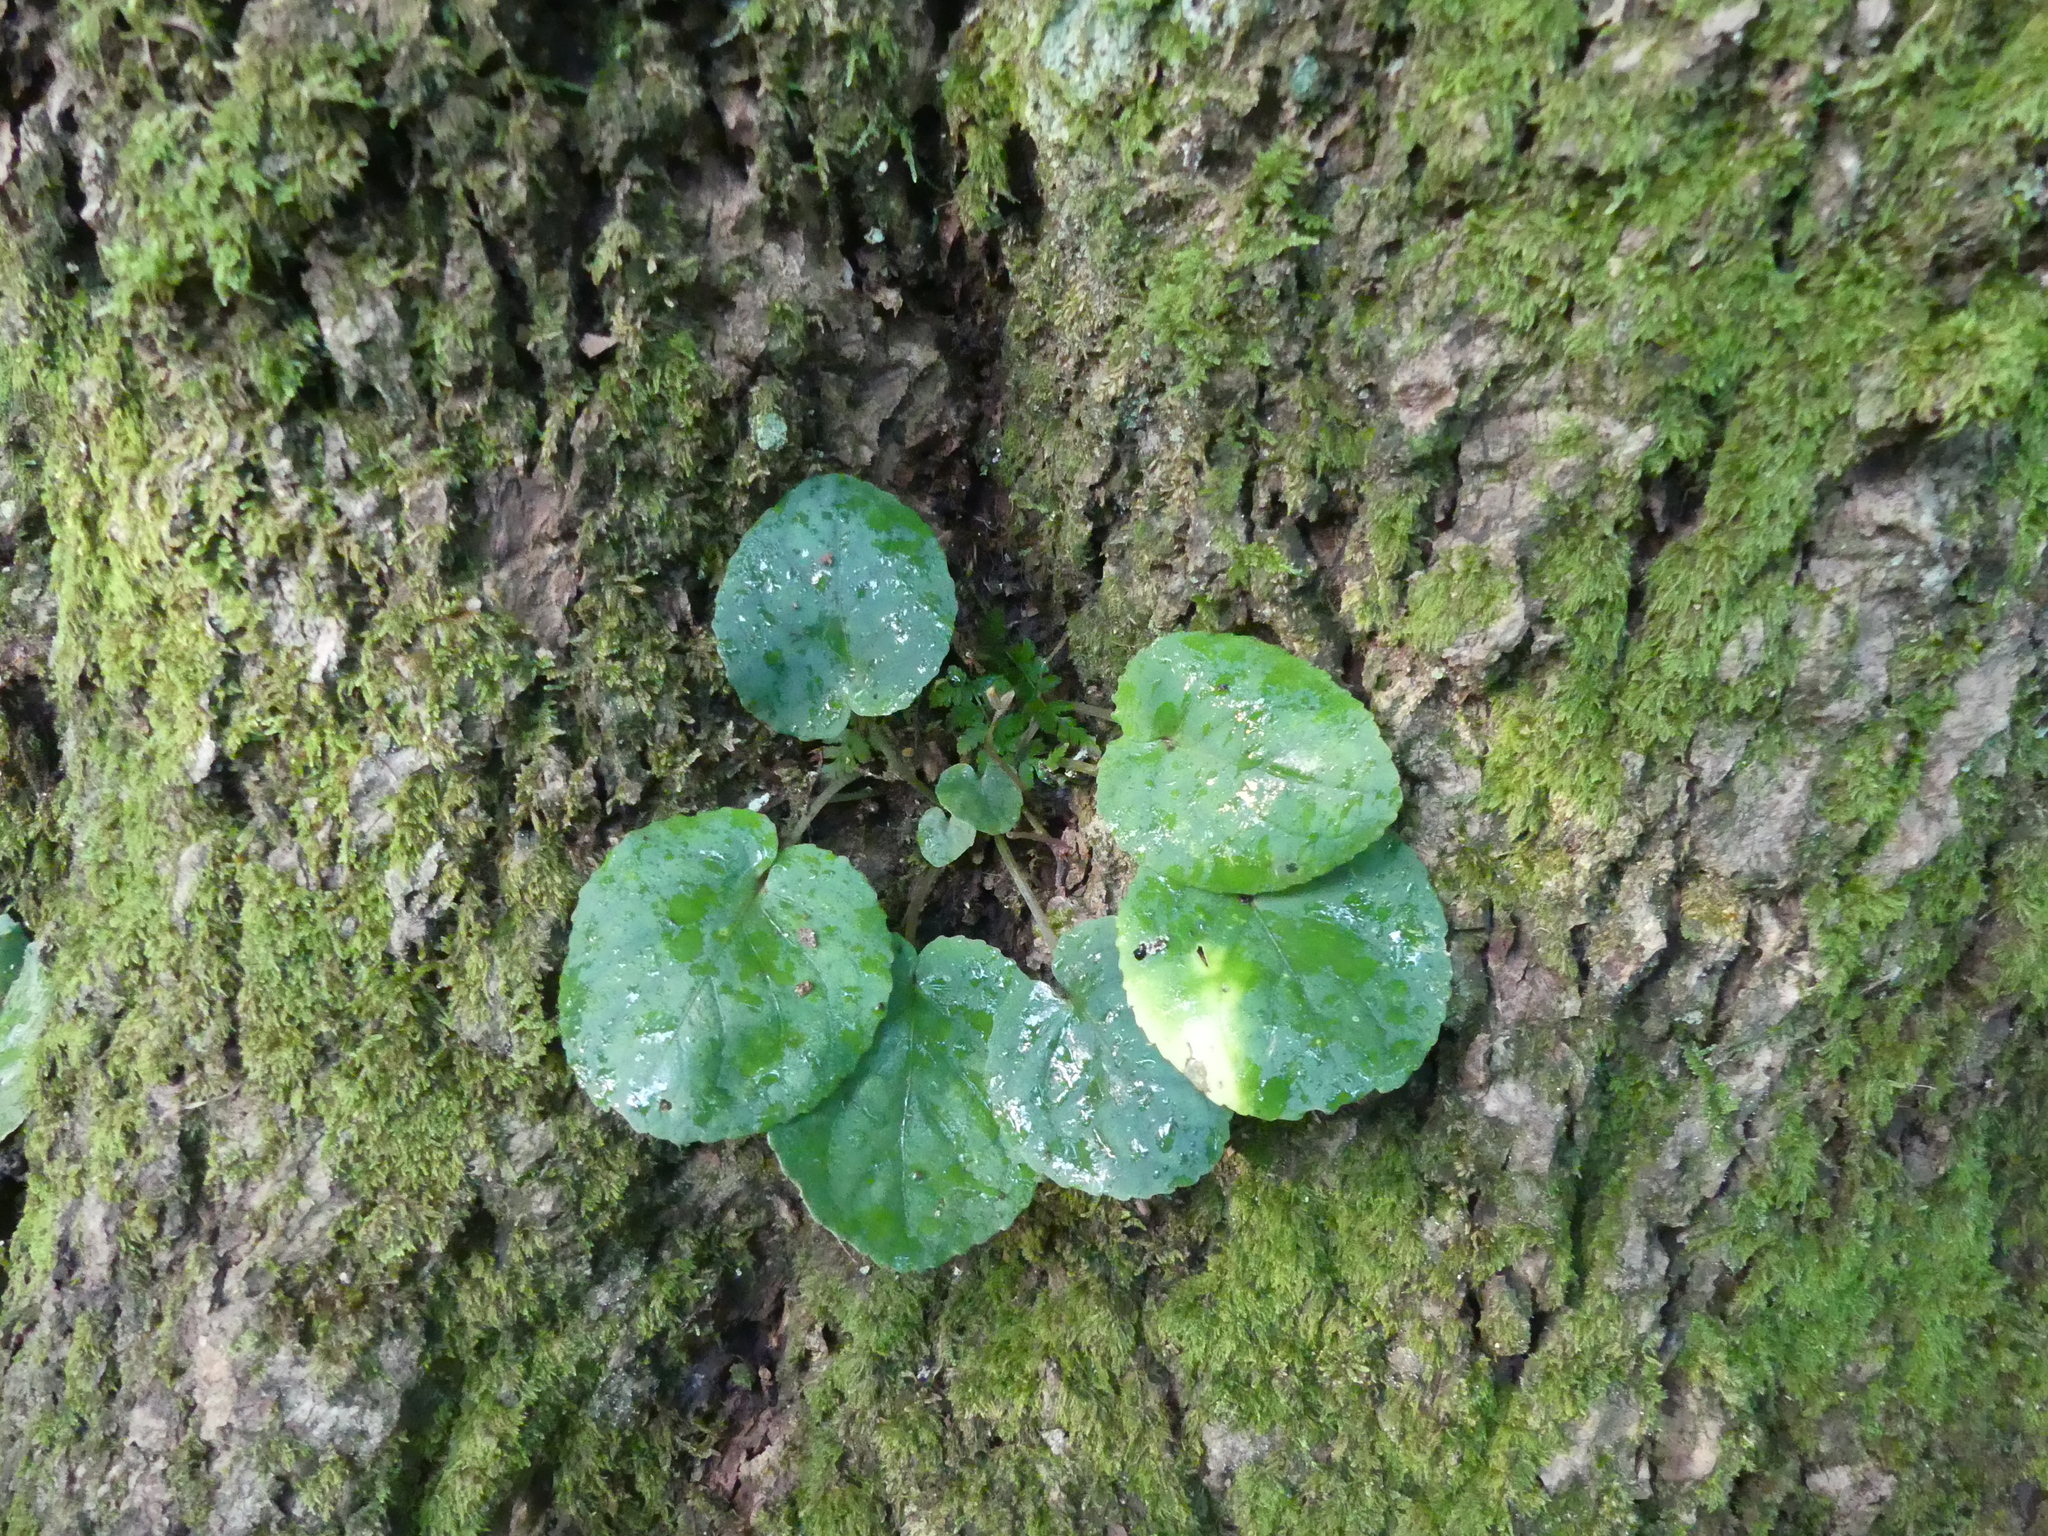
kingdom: Plantae
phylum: Tracheophyta
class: Magnoliopsida
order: Malpighiales
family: Violaceae
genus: Viola
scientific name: Viola rotundifolia
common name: Early yellow violet
